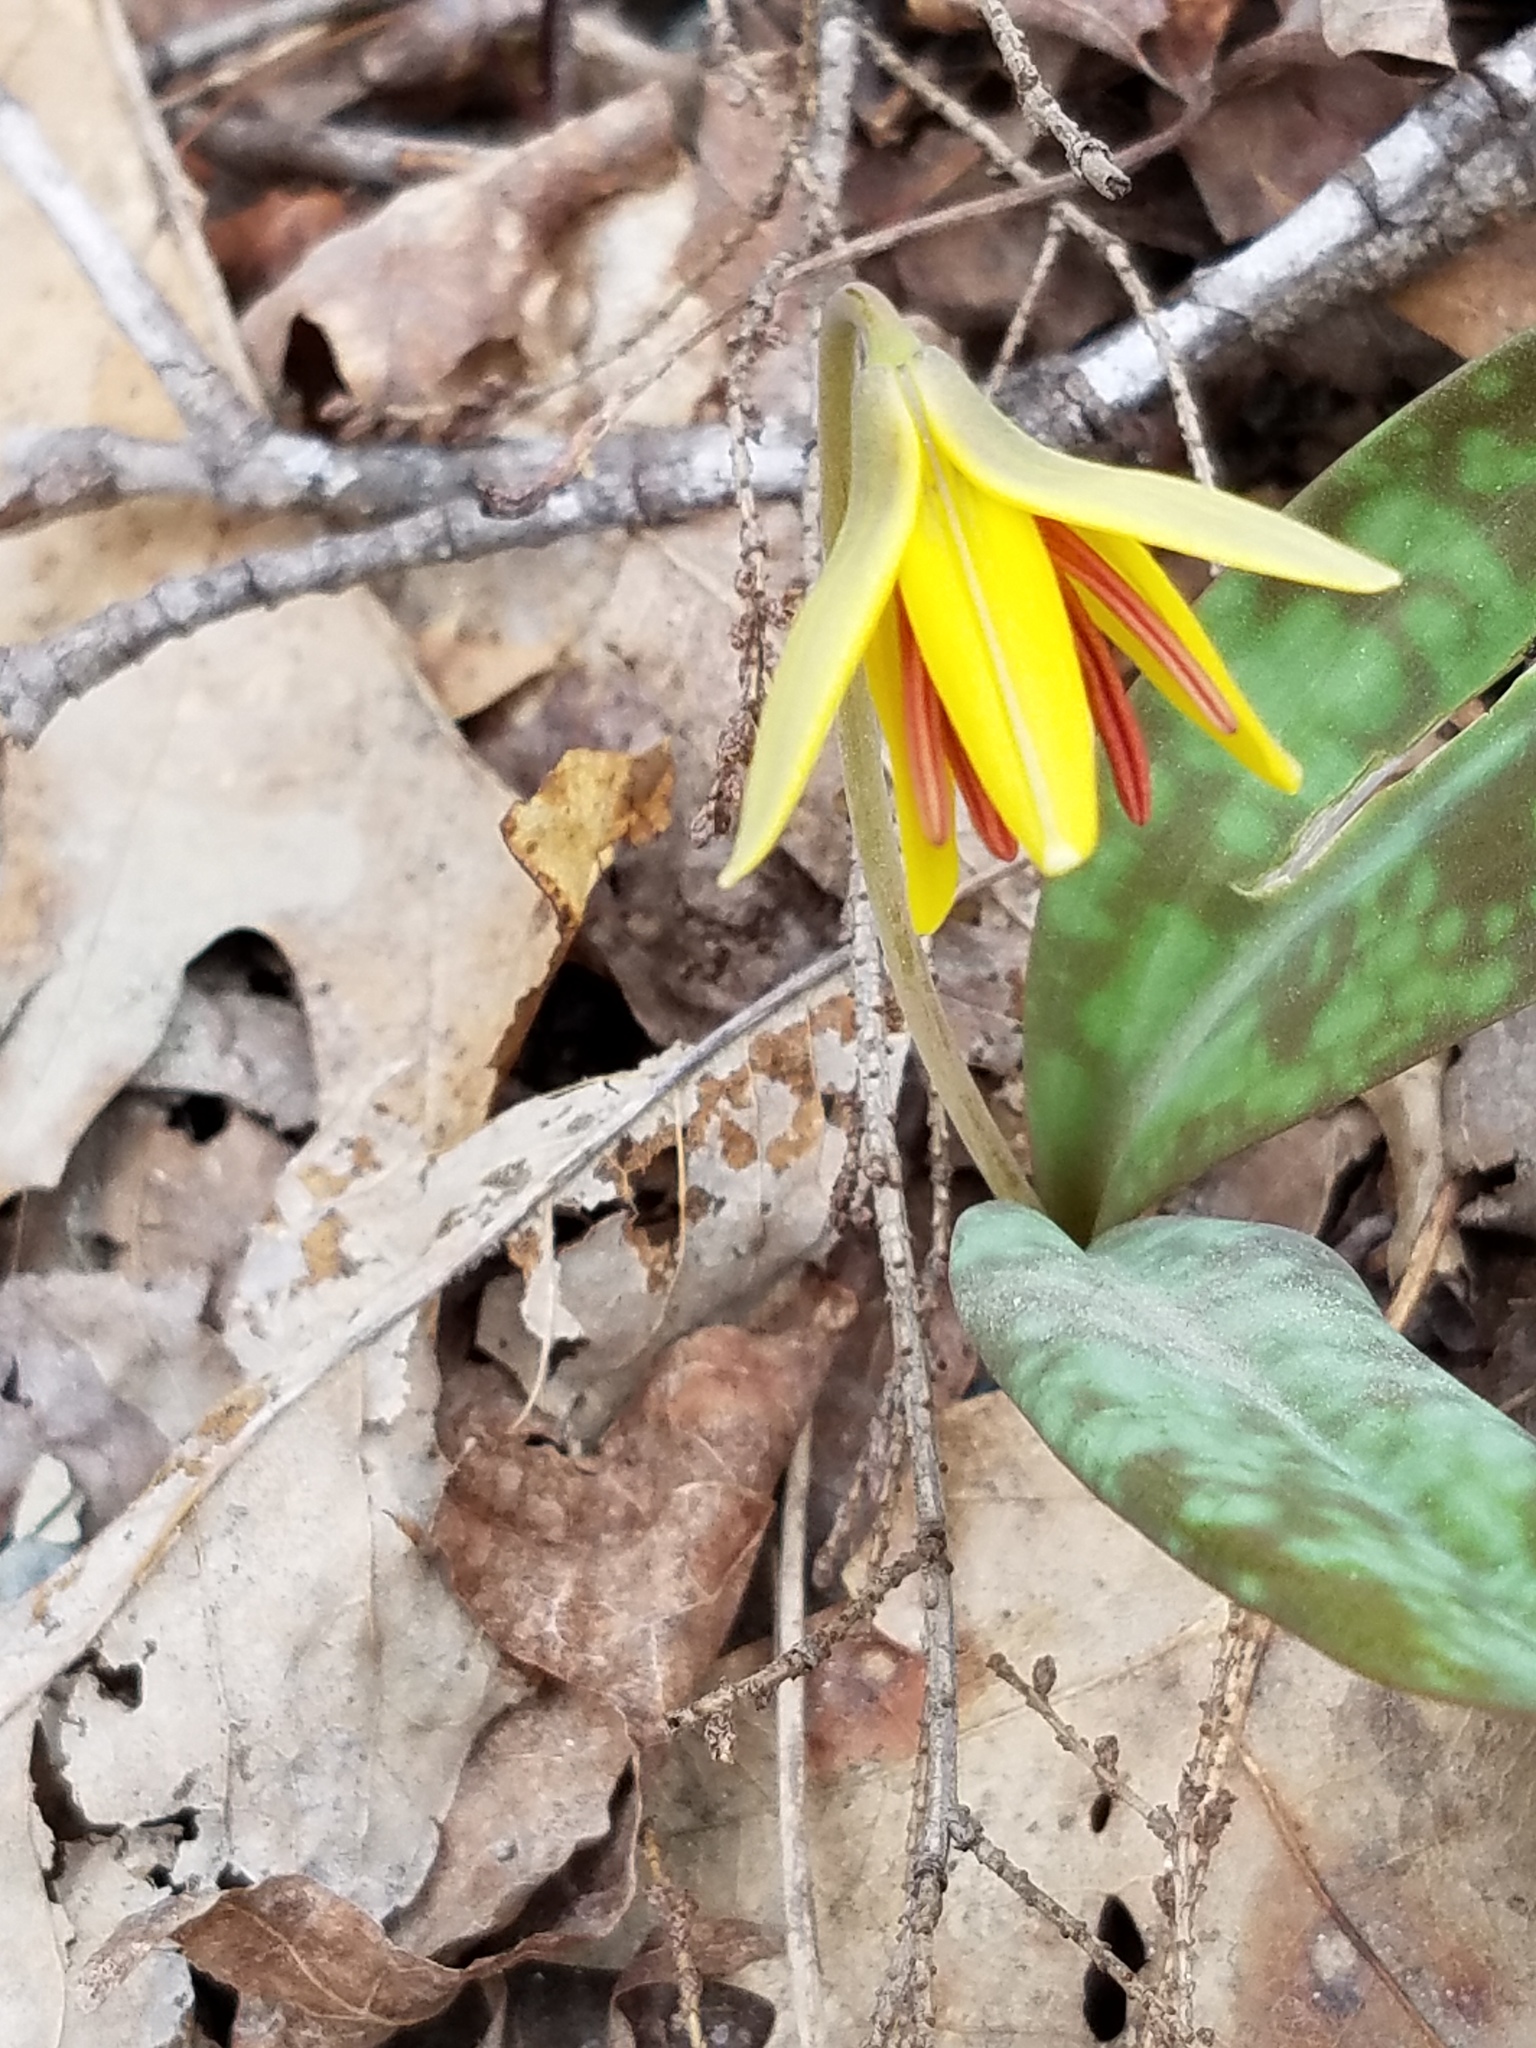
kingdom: Plantae
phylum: Tracheophyta
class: Liliopsida
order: Liliales
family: Liliaceae
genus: Erythronium
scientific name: Erythronium americanum
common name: Yellow adder's-tongue
